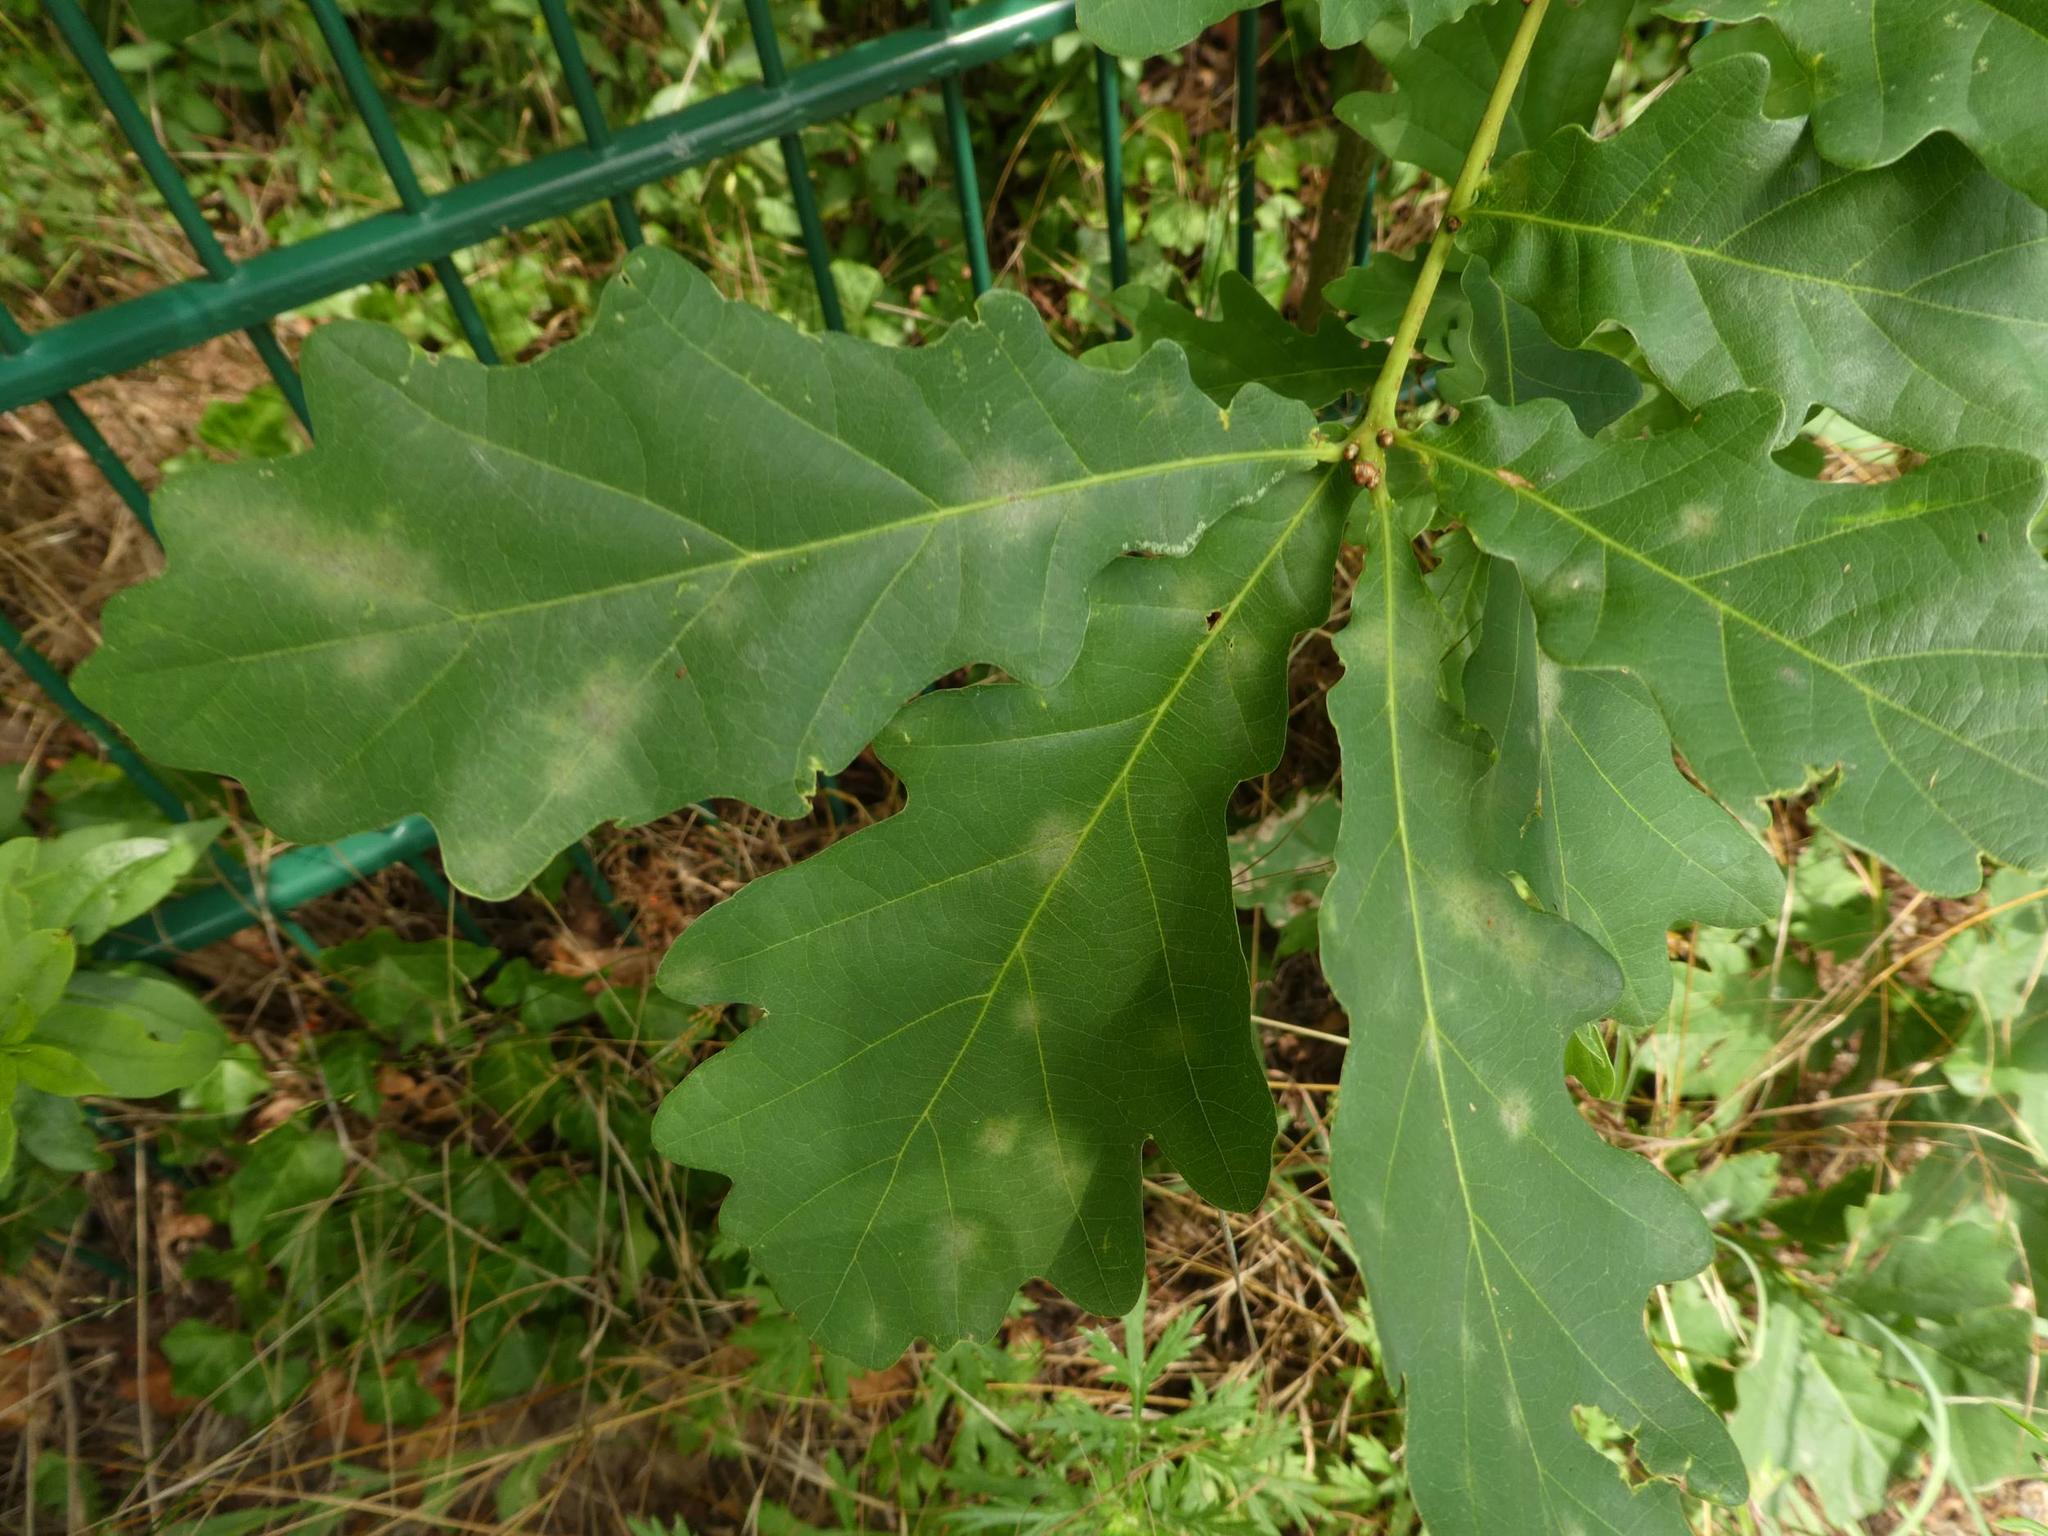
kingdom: Plantae
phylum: Tracheophyta
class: Magnoliopsida
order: Fagales
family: Fagaceae
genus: Quercus
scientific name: Quercus robur
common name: Pedunculate oak
